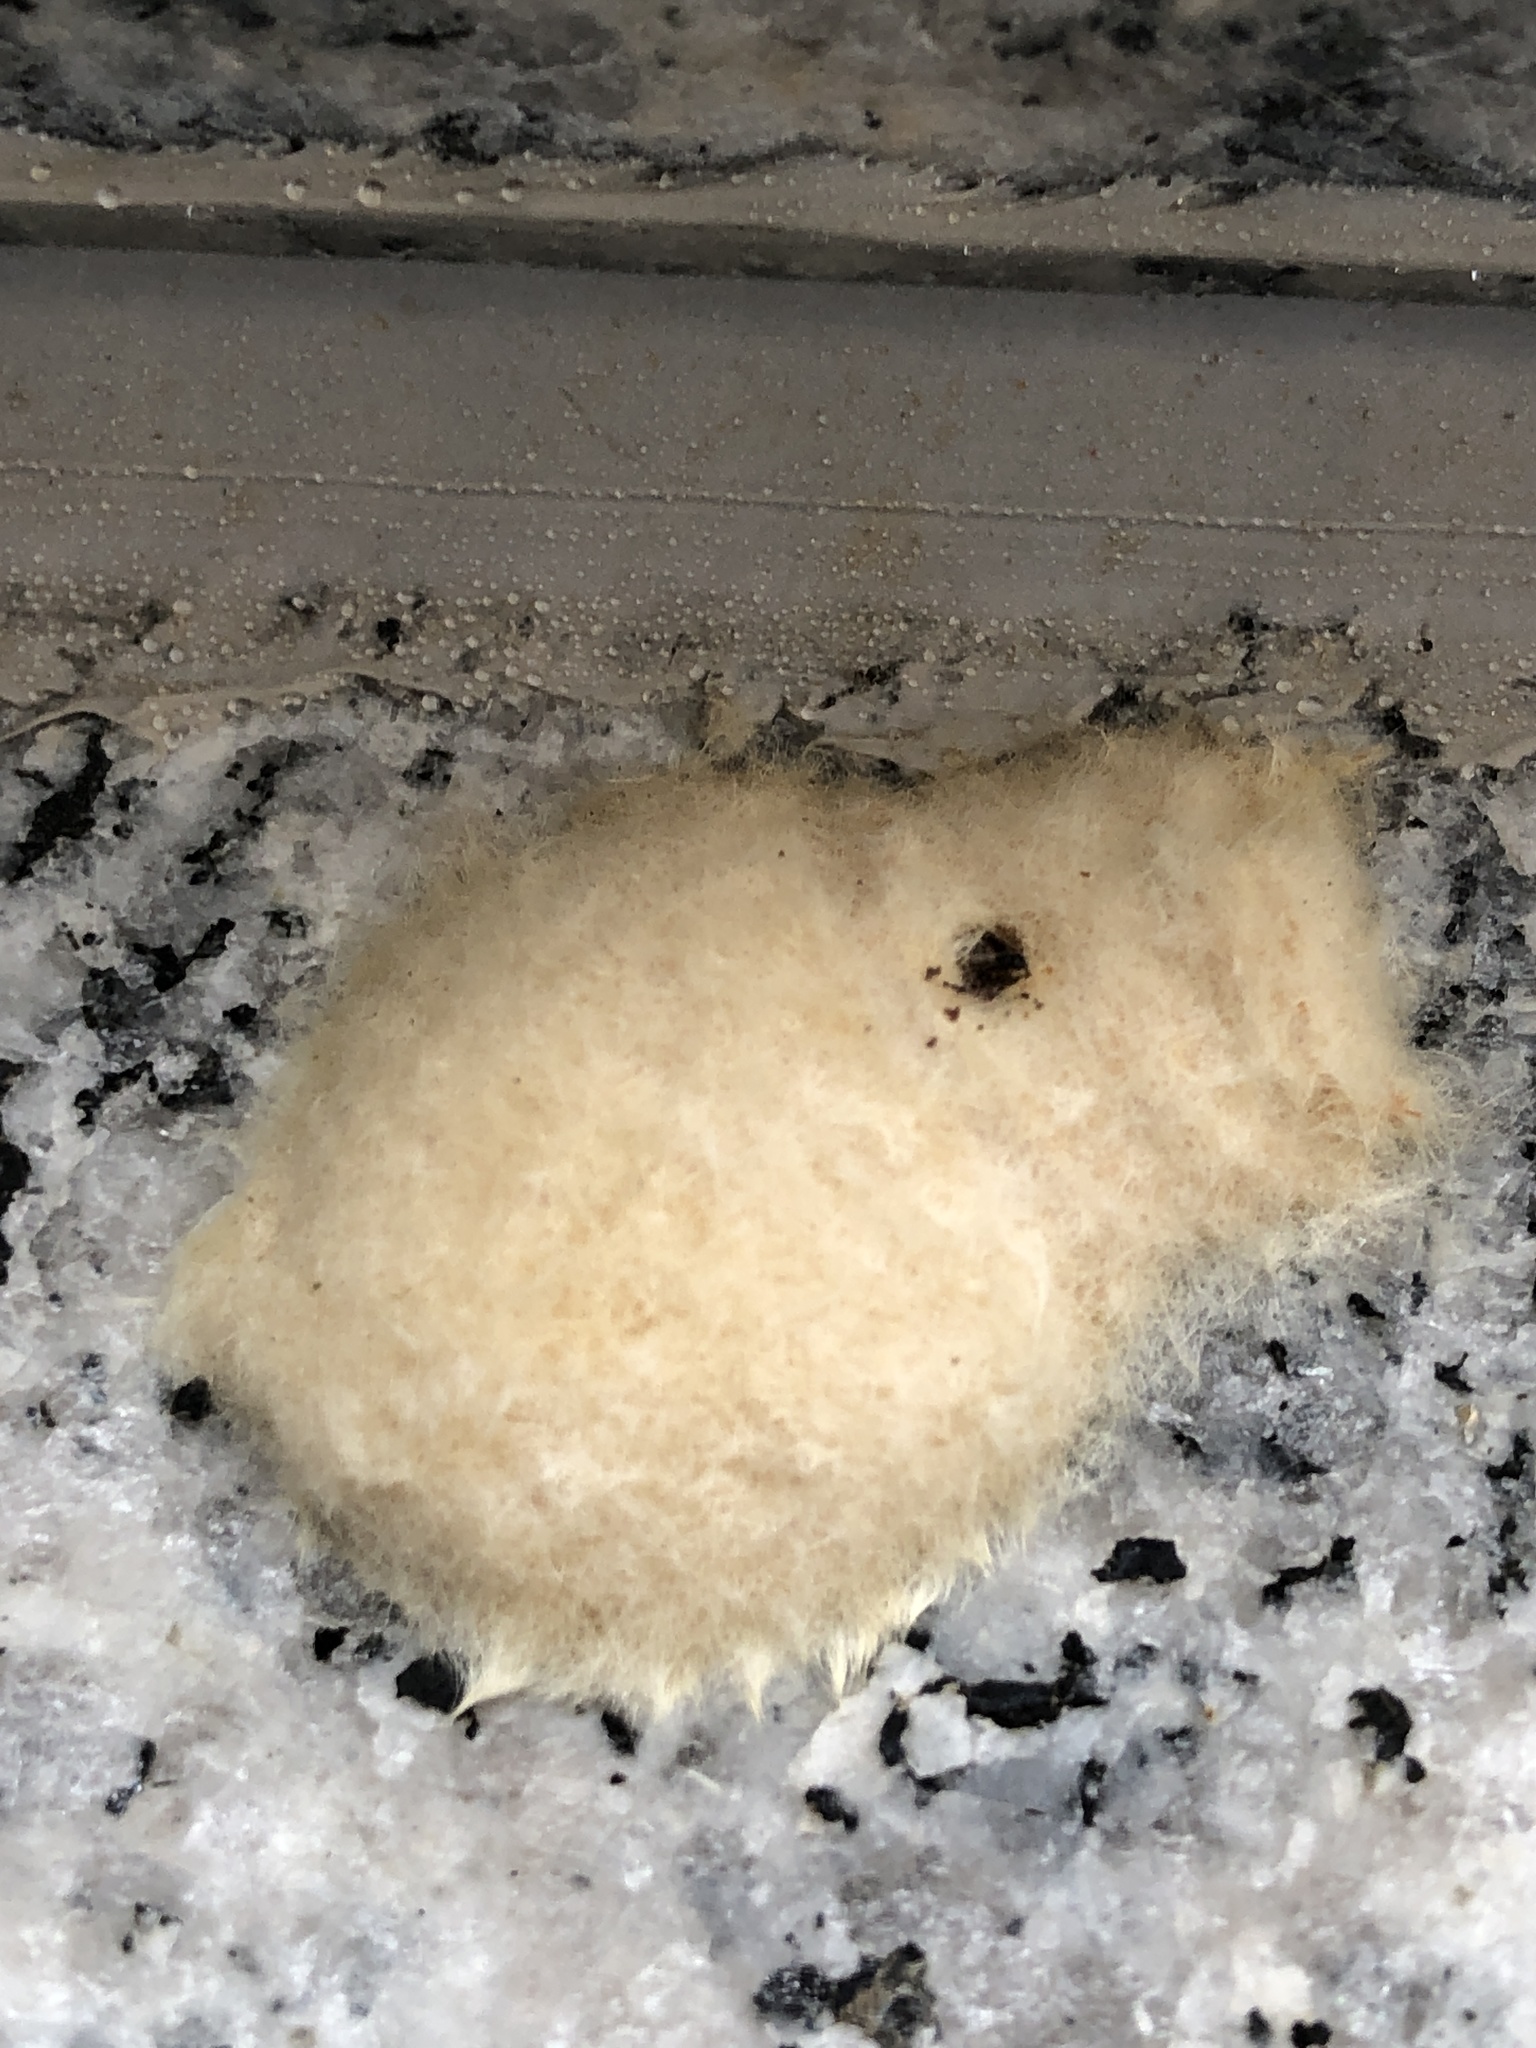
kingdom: Animalia
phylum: Arthropoda
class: Insecta
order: Lepidoptera
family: Erebidae
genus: Lymantria
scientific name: Lymantria dispar
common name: Gypsy moth
